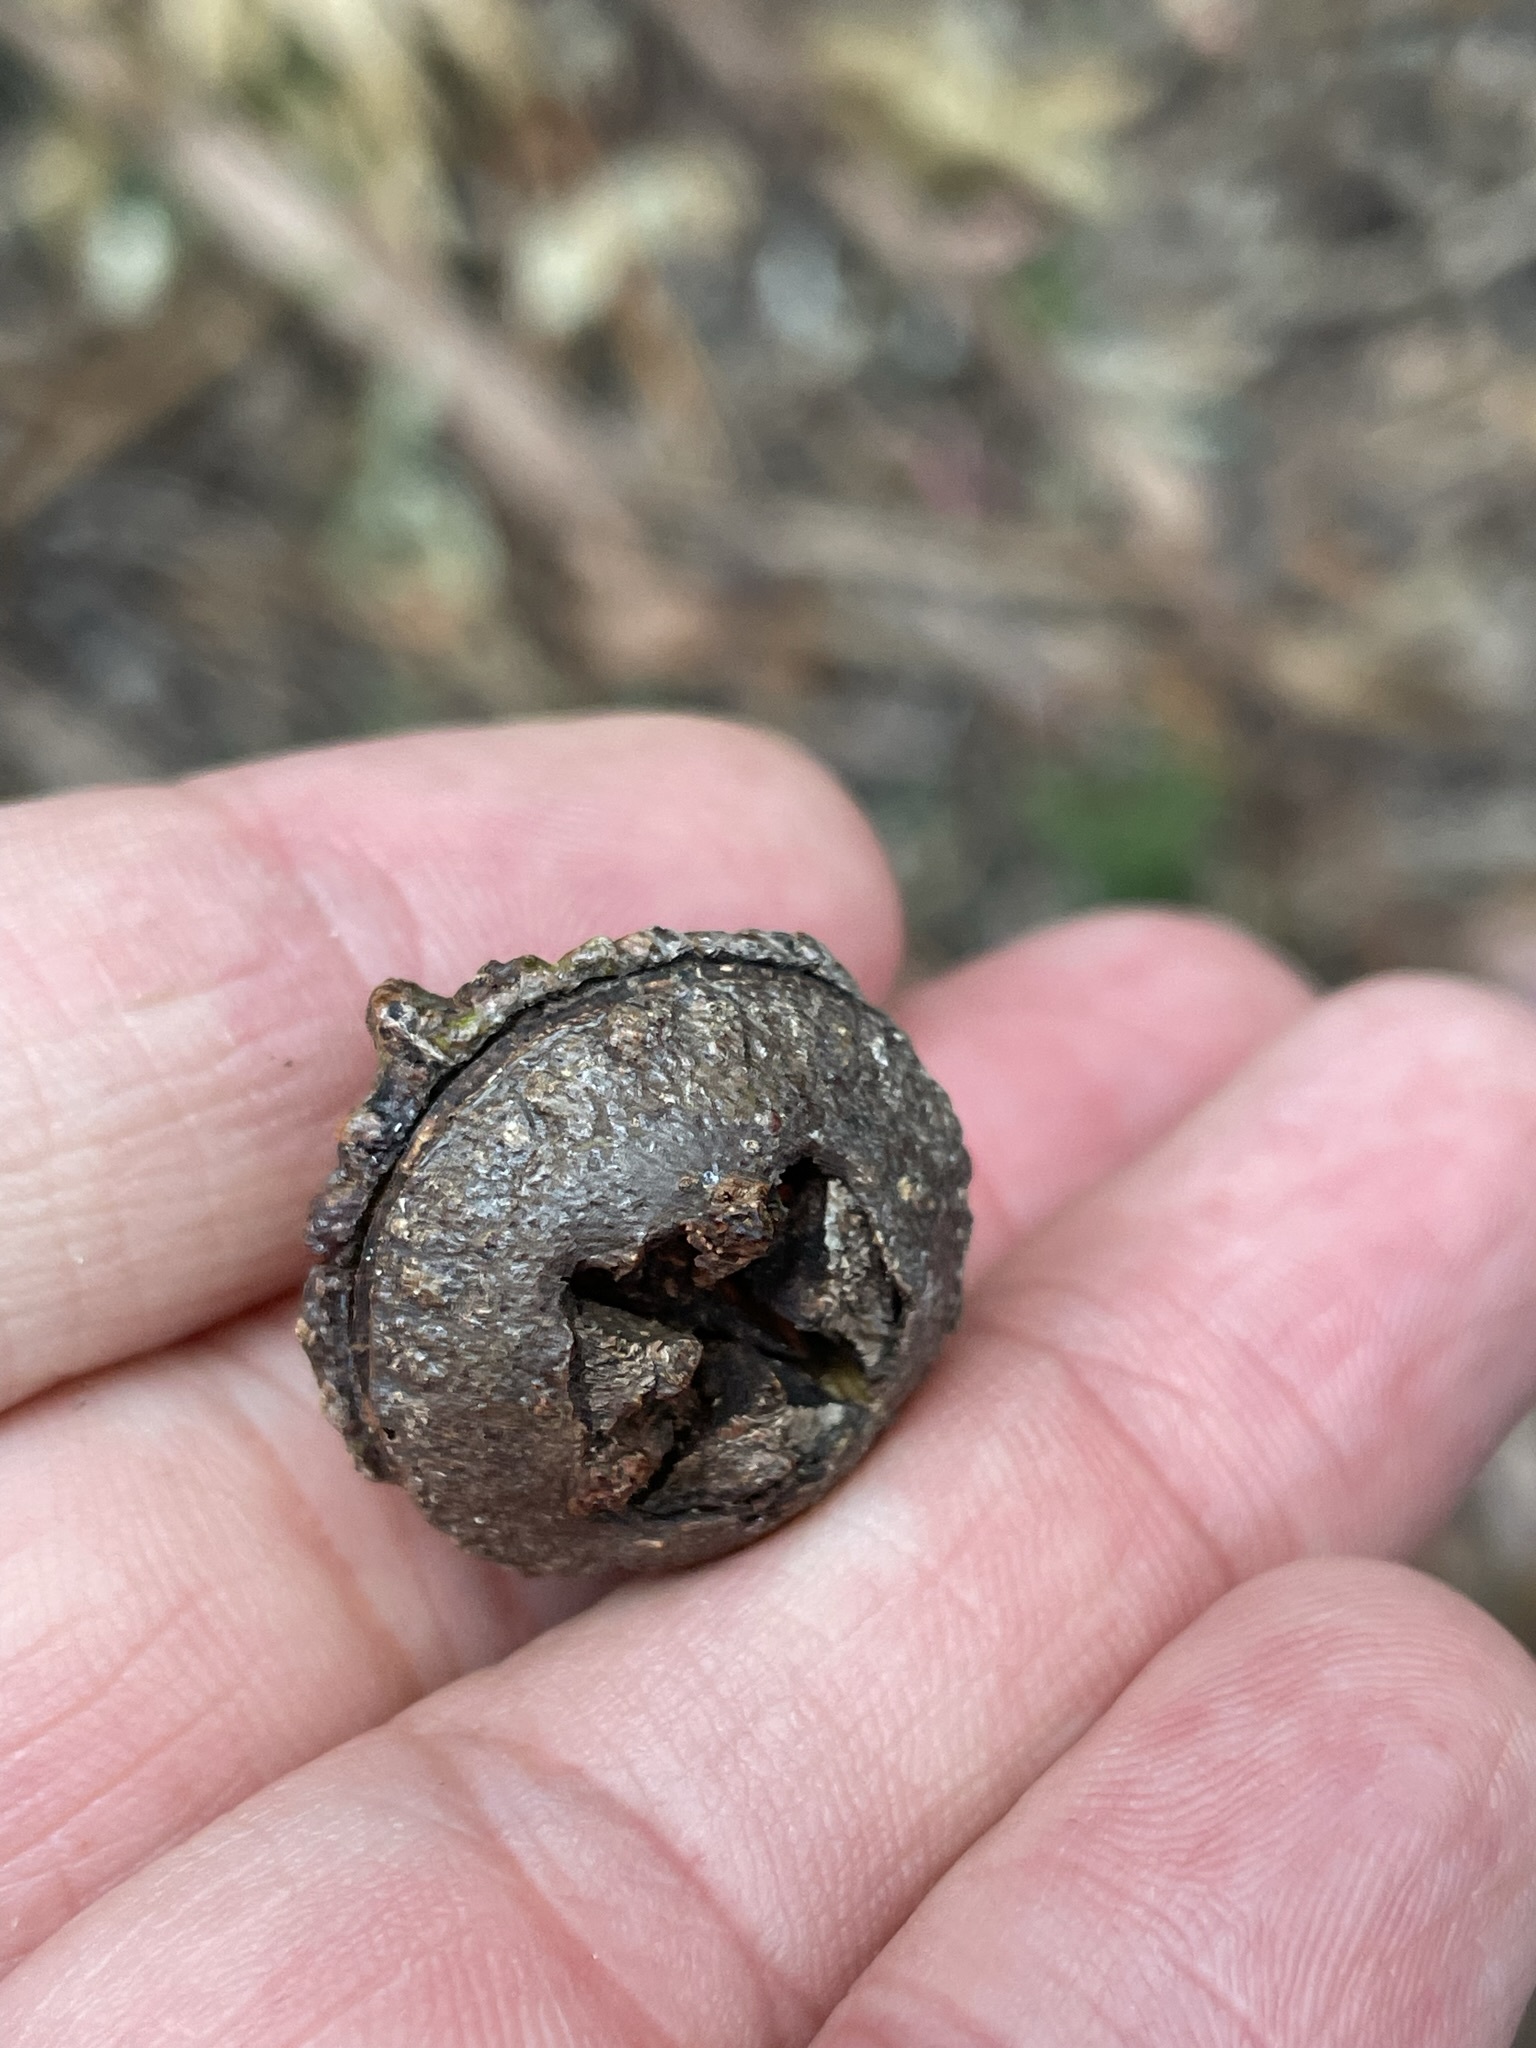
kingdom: Plantae
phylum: Tracheophyta
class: Magnoliopsida
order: Myrtales
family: Myrtaceae
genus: Eucalyptus
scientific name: Eucalyptus globulus
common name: Southern blue-gum
